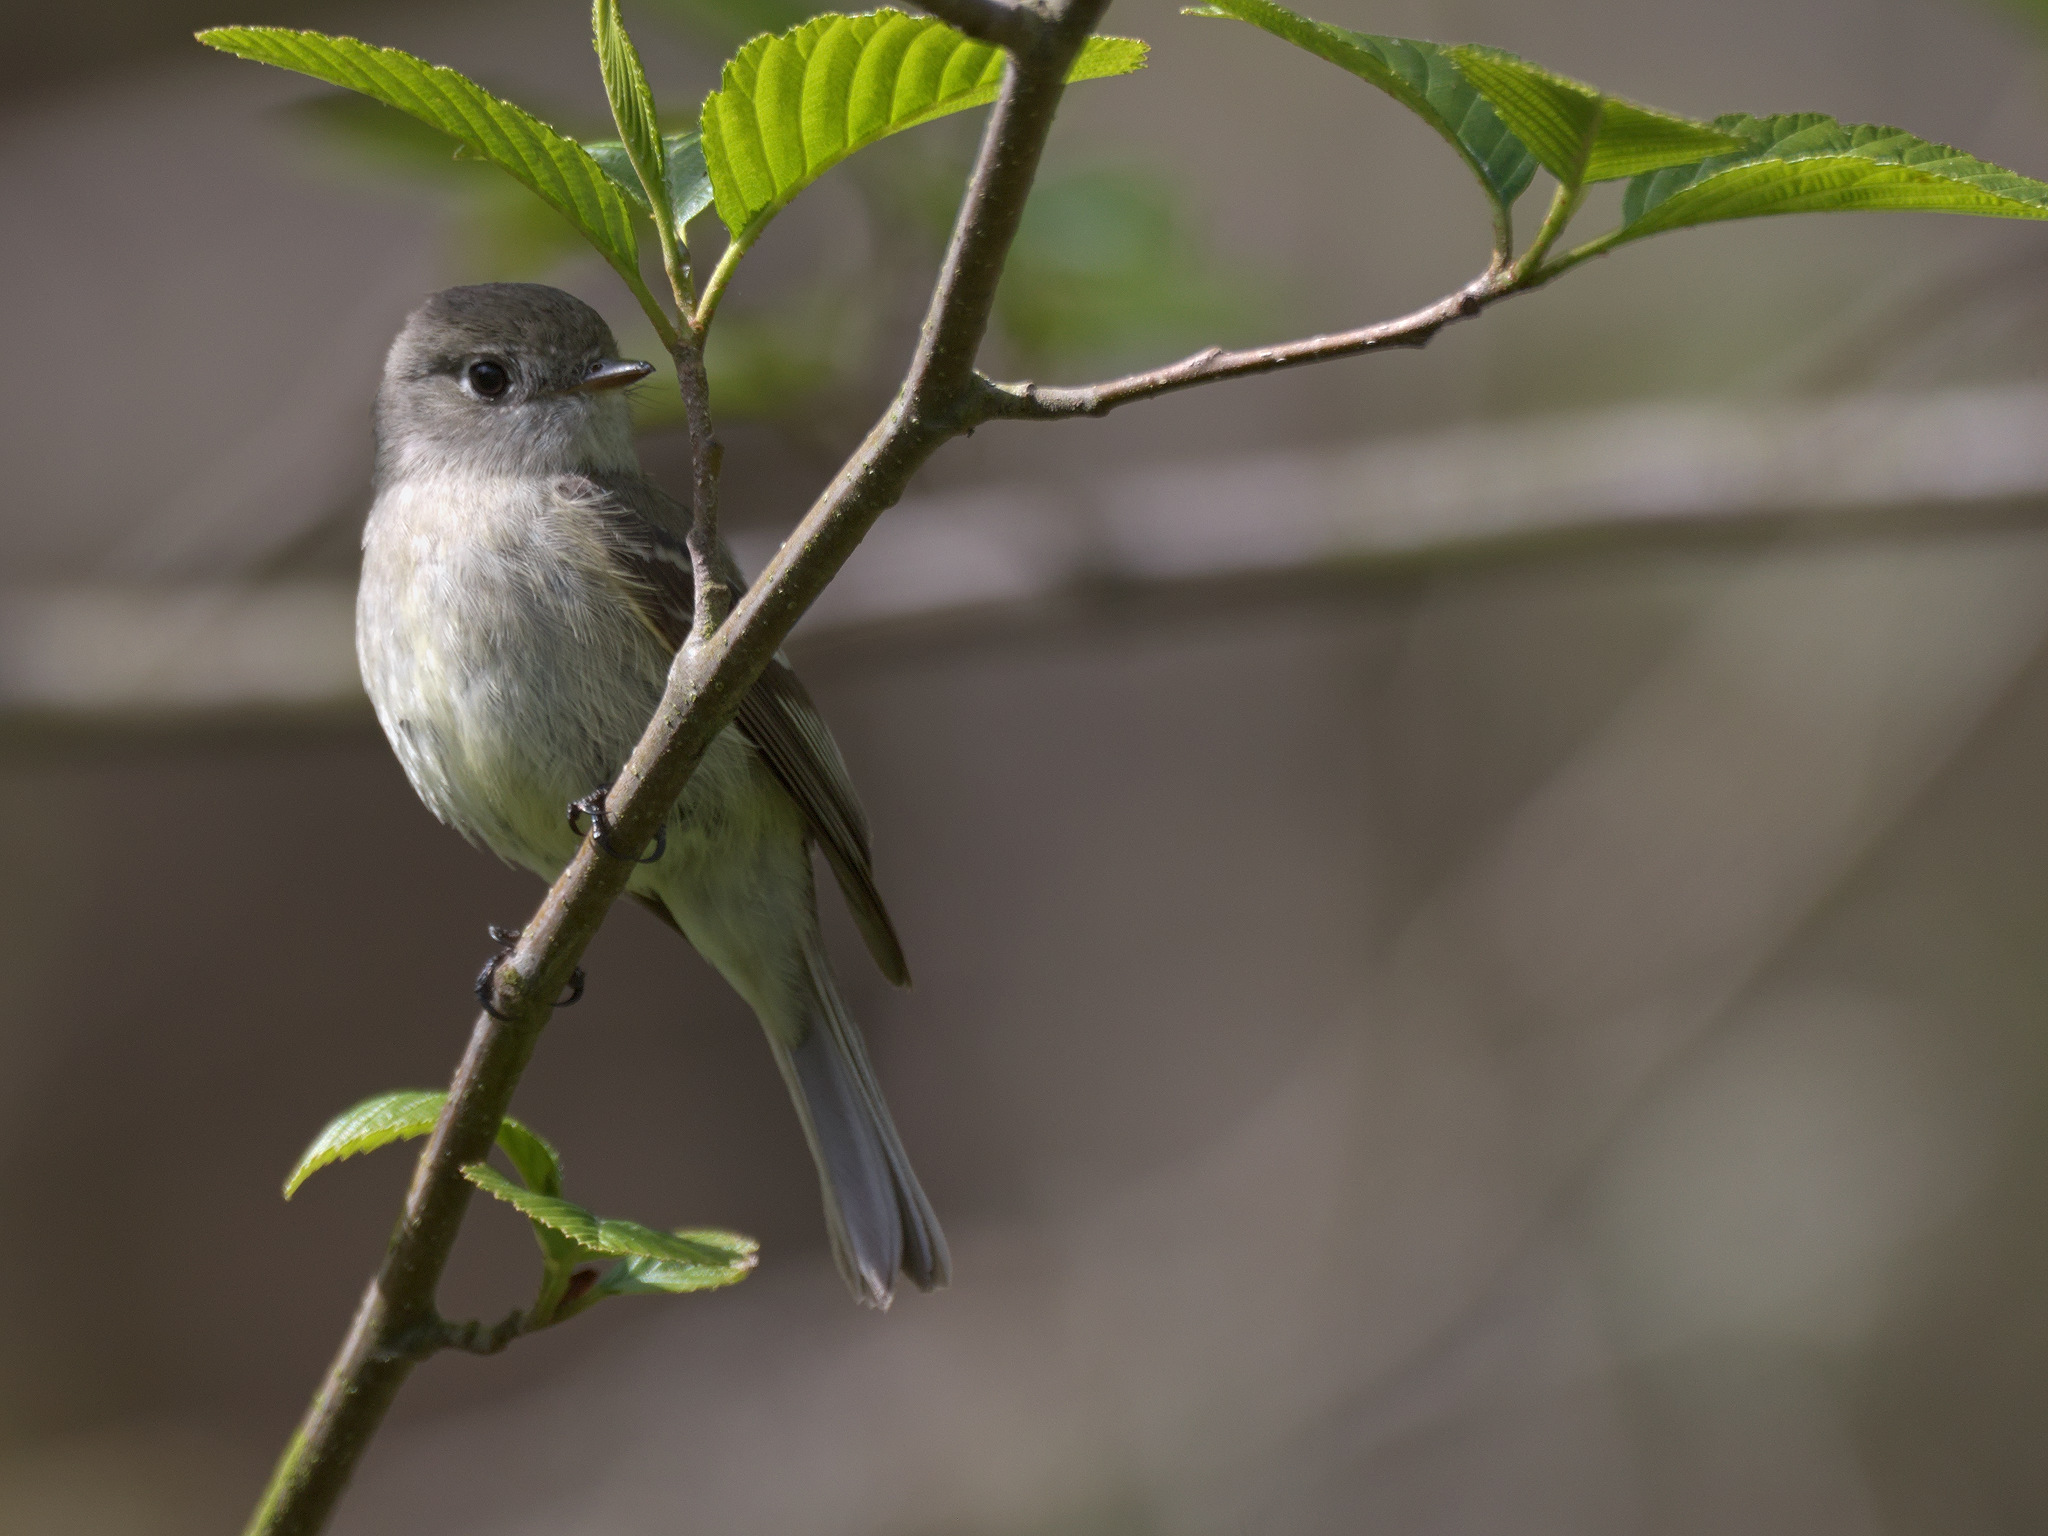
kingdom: Animalia
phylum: Chordata
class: Aves
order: Passeriformes
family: Tyrannidae
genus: Empidonax
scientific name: Empidonax hammondii
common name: Hammond's flycatcher
